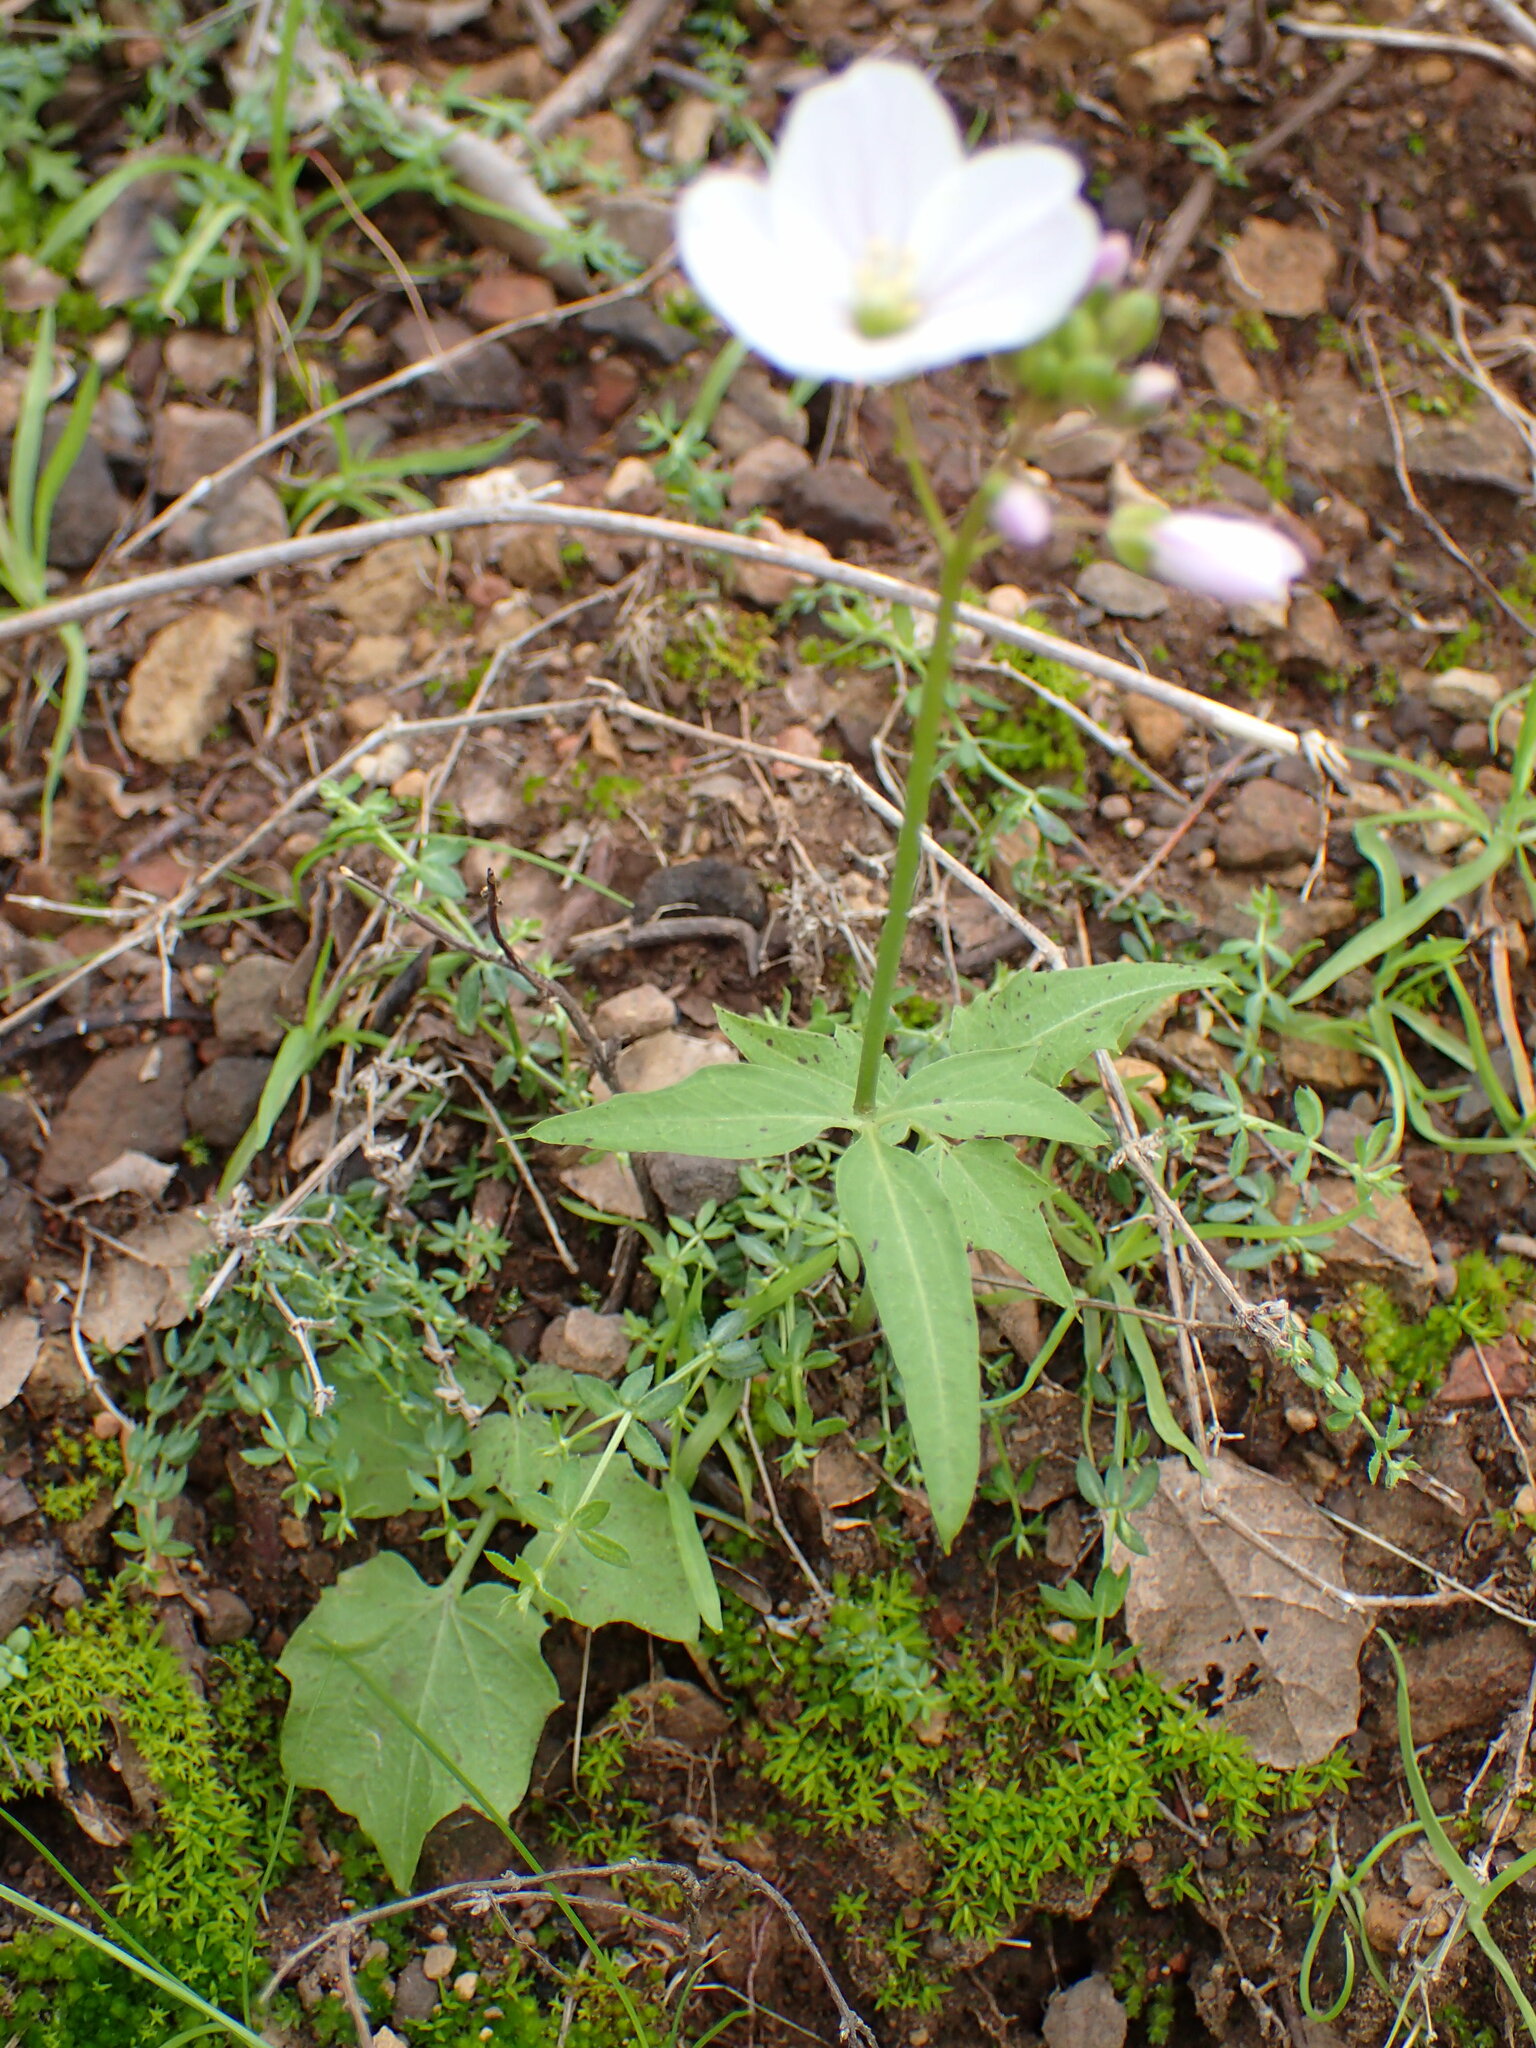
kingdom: Plantae
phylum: Tracheophyta
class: Magnoliopsida
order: Brassicales
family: Brassicaceae
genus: Cardamine
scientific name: Cardamine californica
